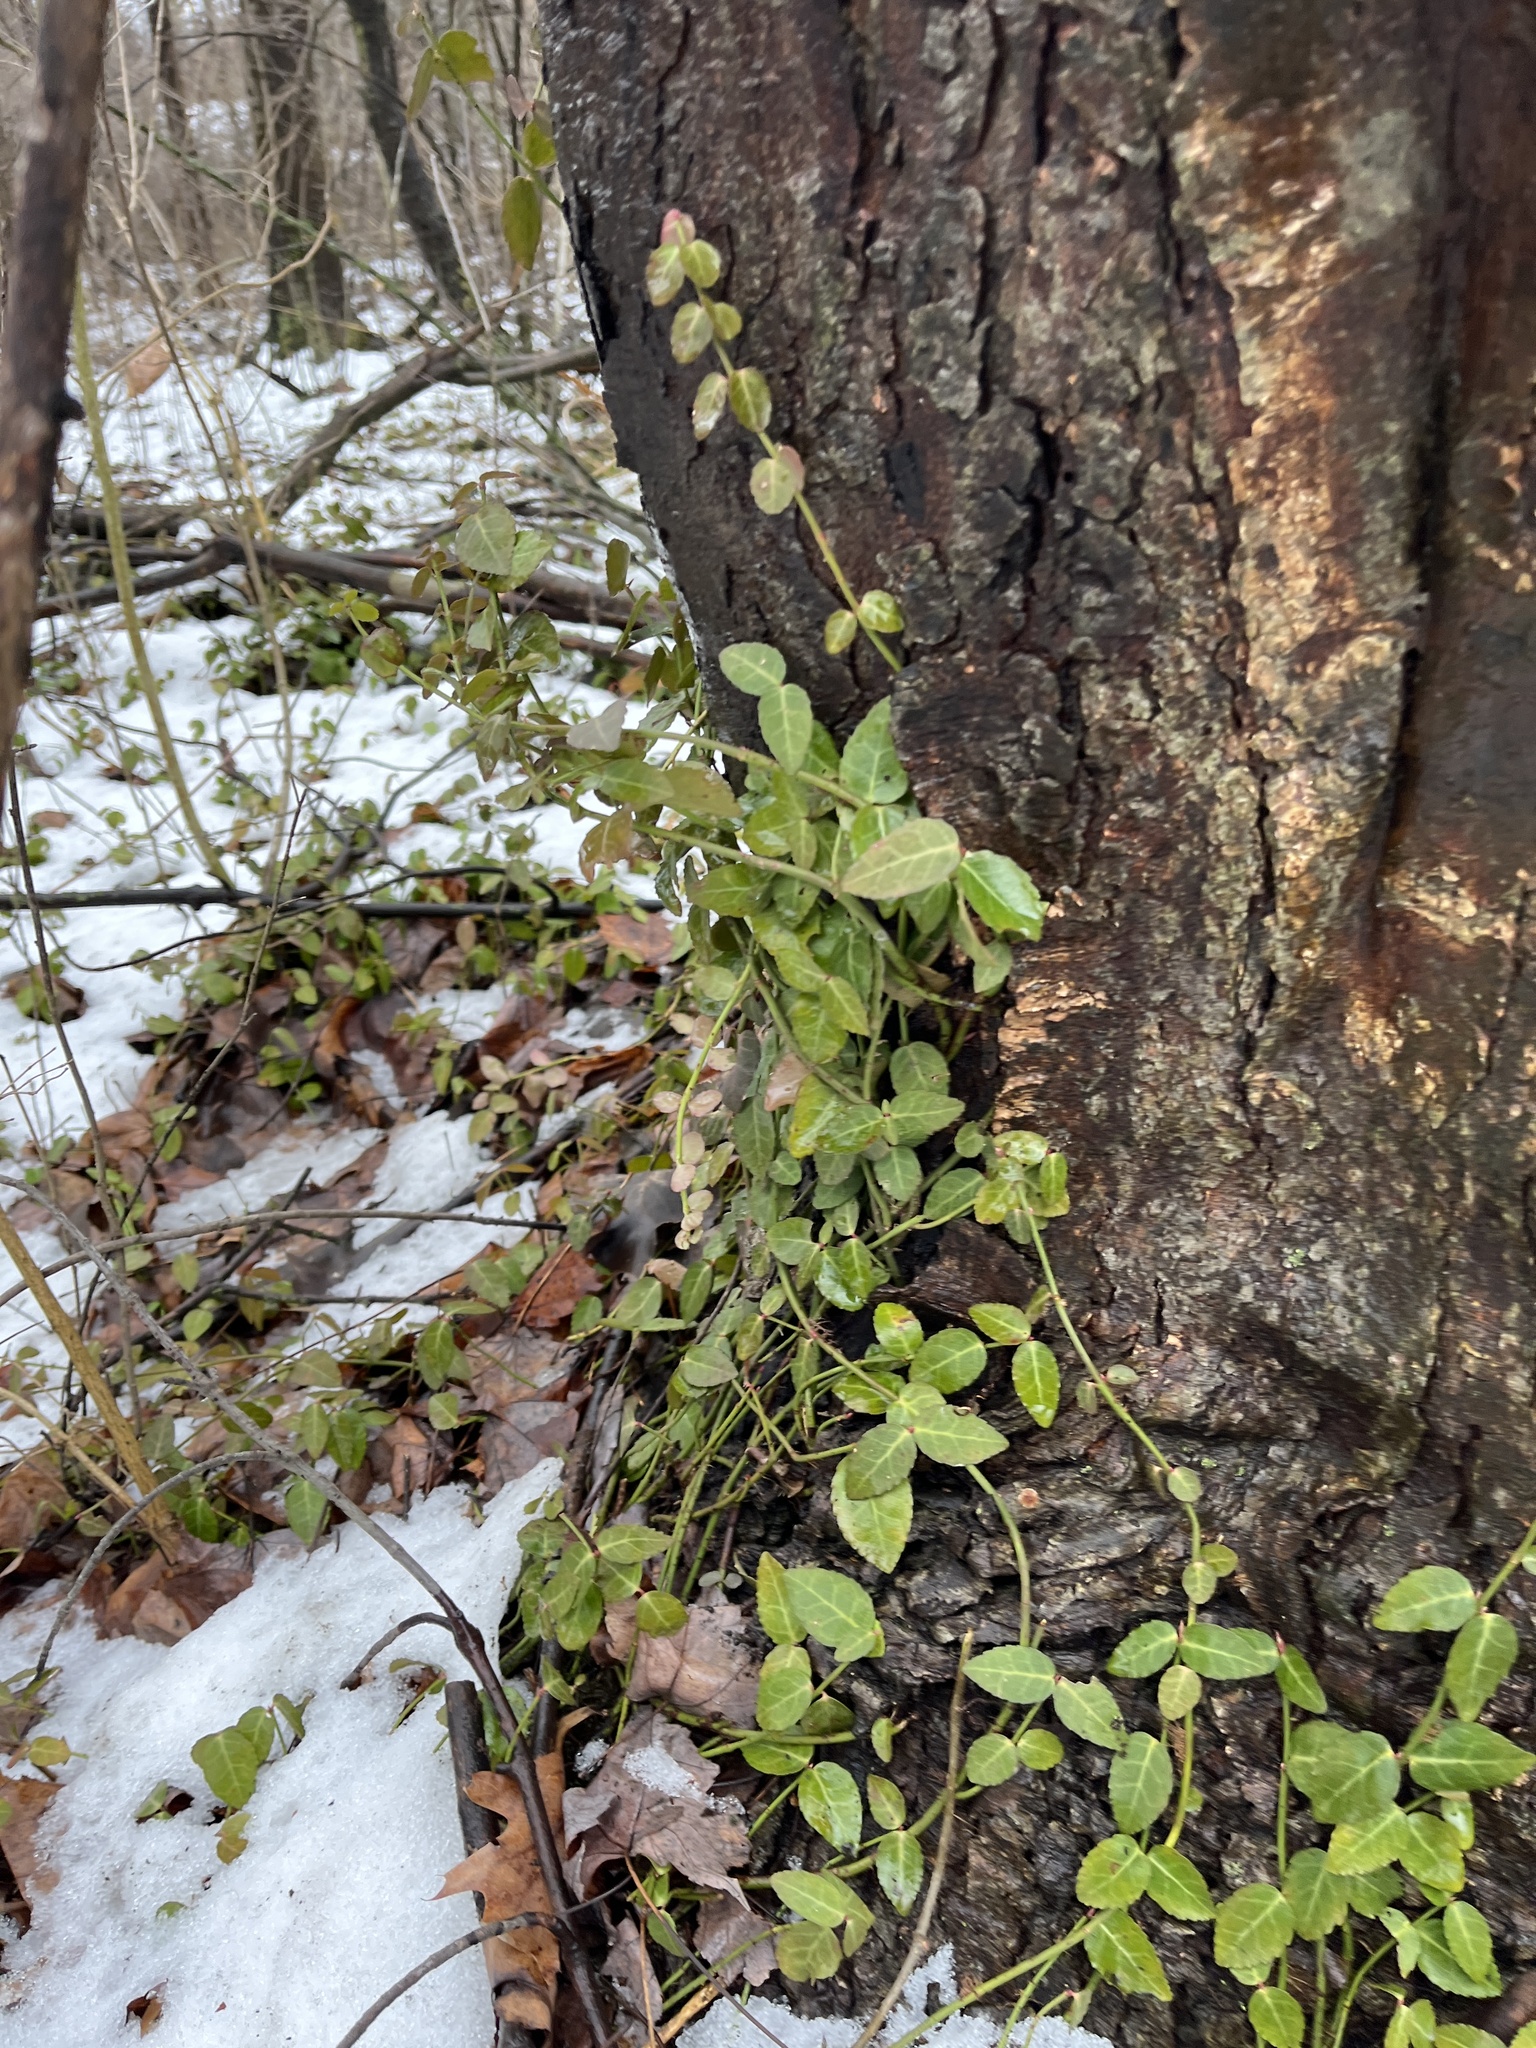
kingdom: Plantae
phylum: Tracheophyta
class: Magnoliopsida
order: Celastrales
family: Celastraceae
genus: Euonymus
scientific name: Euonymus fortunei
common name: Climbing euonymus
